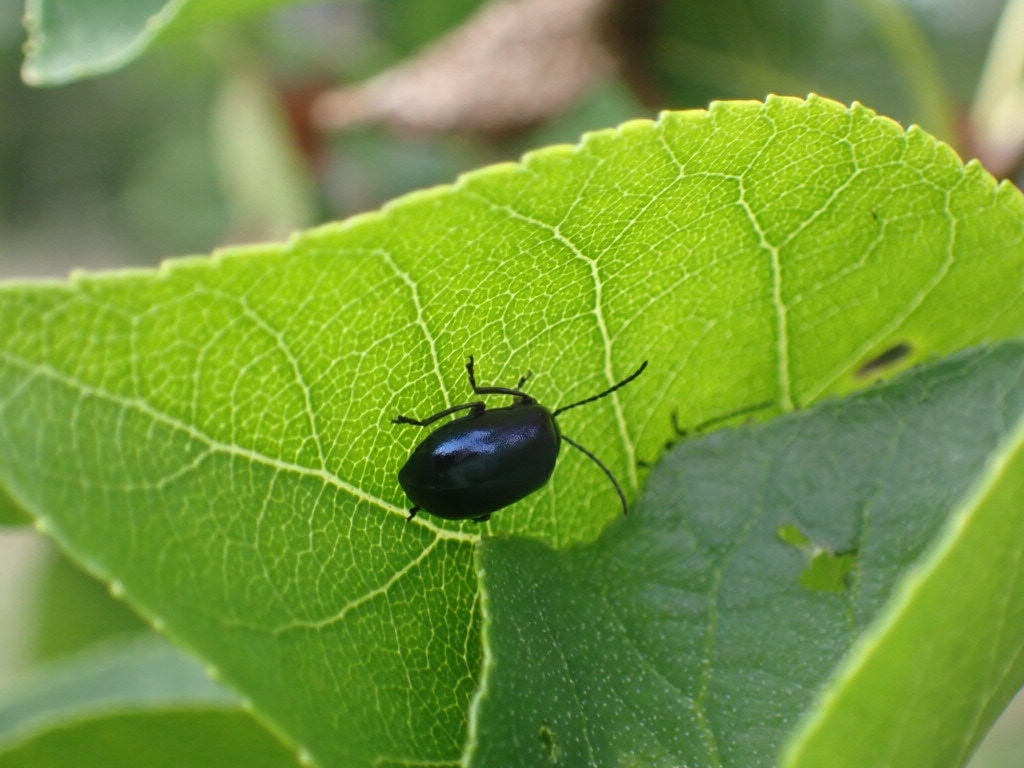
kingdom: Animalia
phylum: Arthropoda
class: Insecta
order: Coleoptera
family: Chrysomelidae
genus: Agelastica
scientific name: Agelastica alni
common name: Alder leaf beetle
